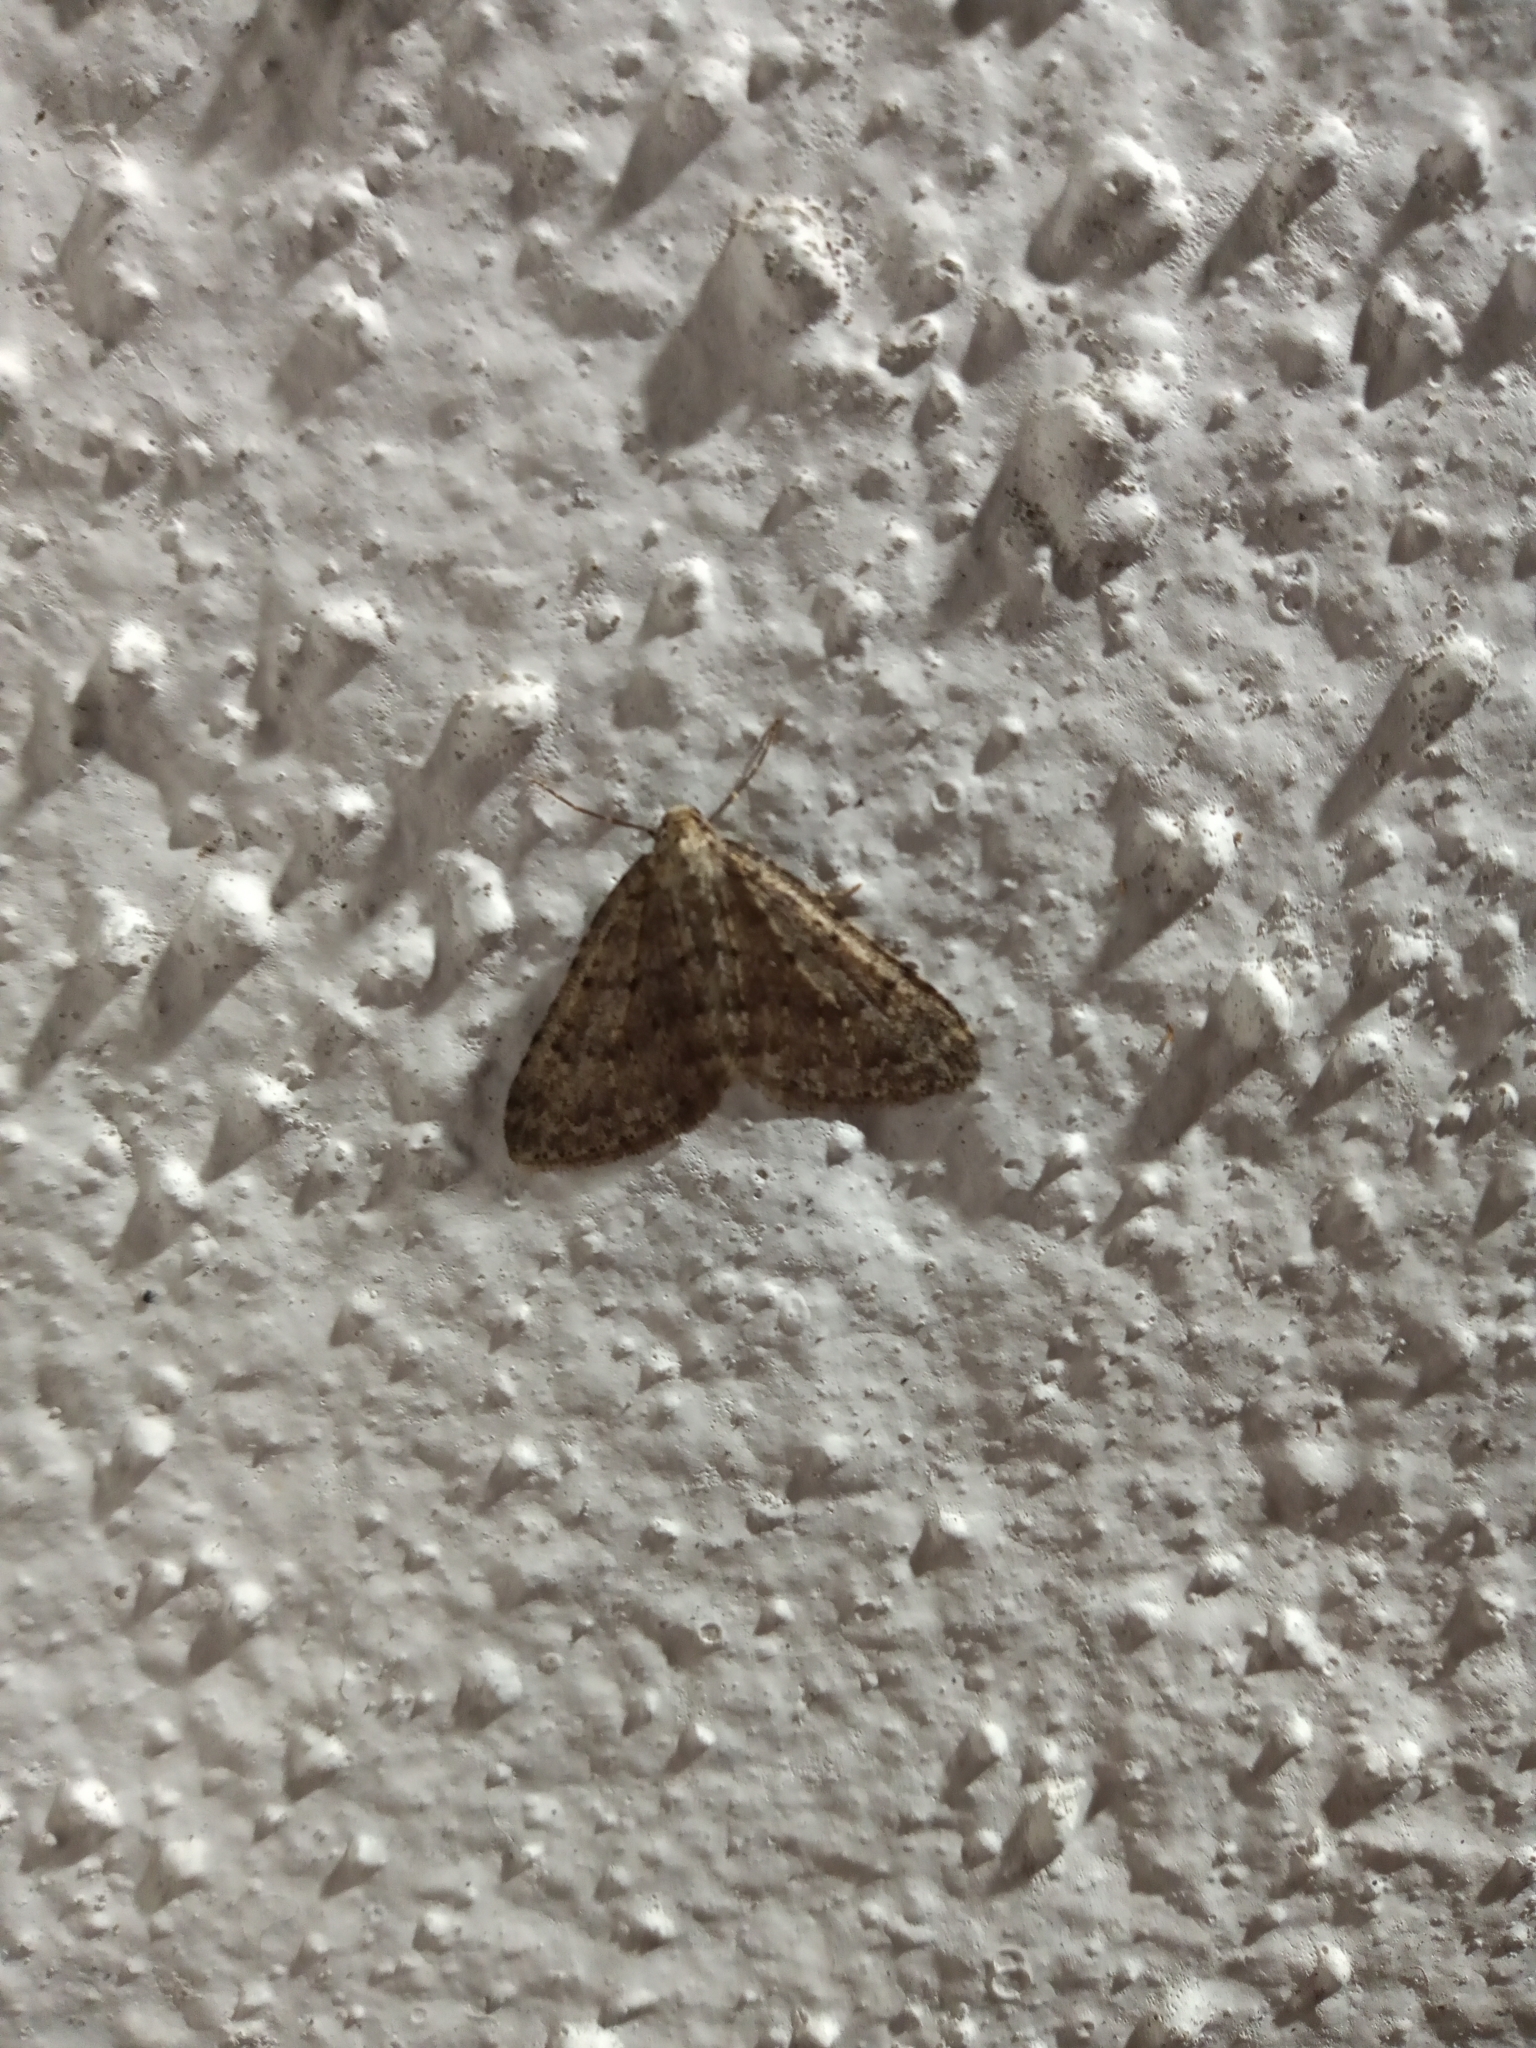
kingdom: Animalia
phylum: Arthropoda
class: Insecta
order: Lepidoptera
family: Geometridae
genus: Colostygia
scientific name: Colostygia multistrigaria
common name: Mottled grey
